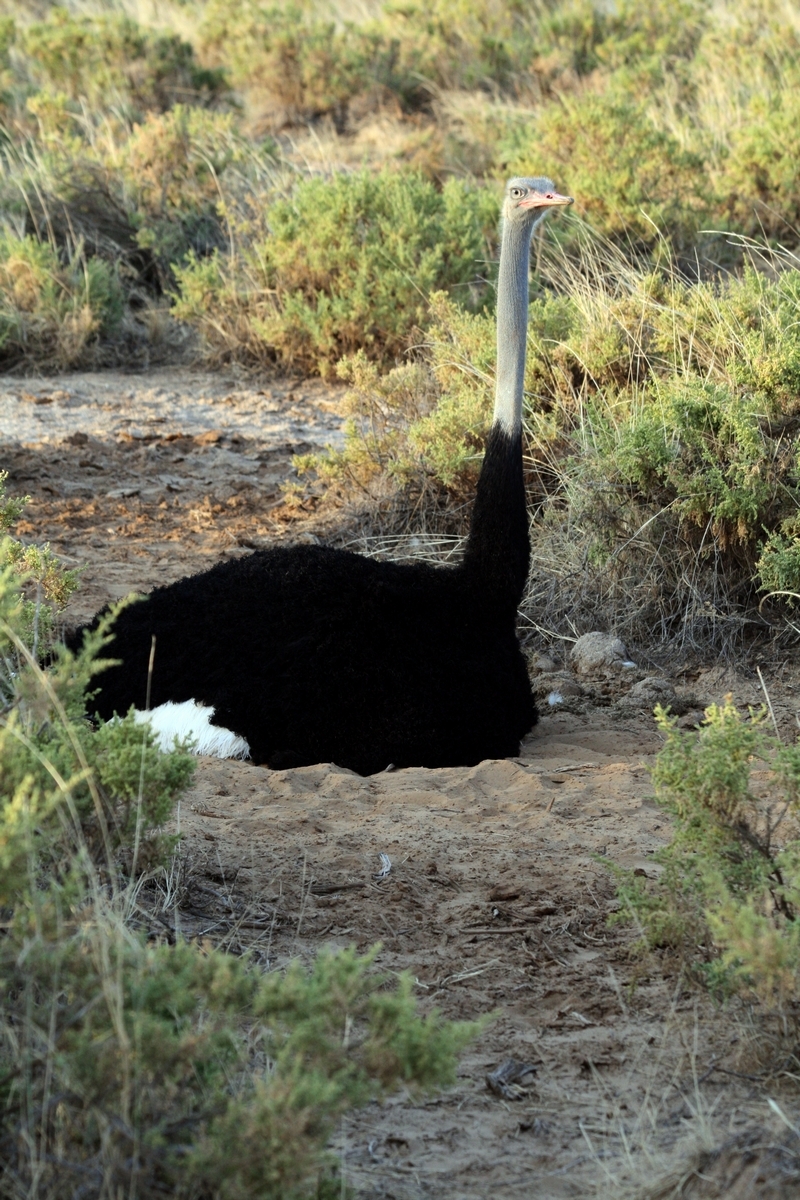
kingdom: Animalia
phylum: Chordata
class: Aves
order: Struthioniformes
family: Struthionidae
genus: Struthio
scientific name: Struthio molybdophanes
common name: Somali ostrich
